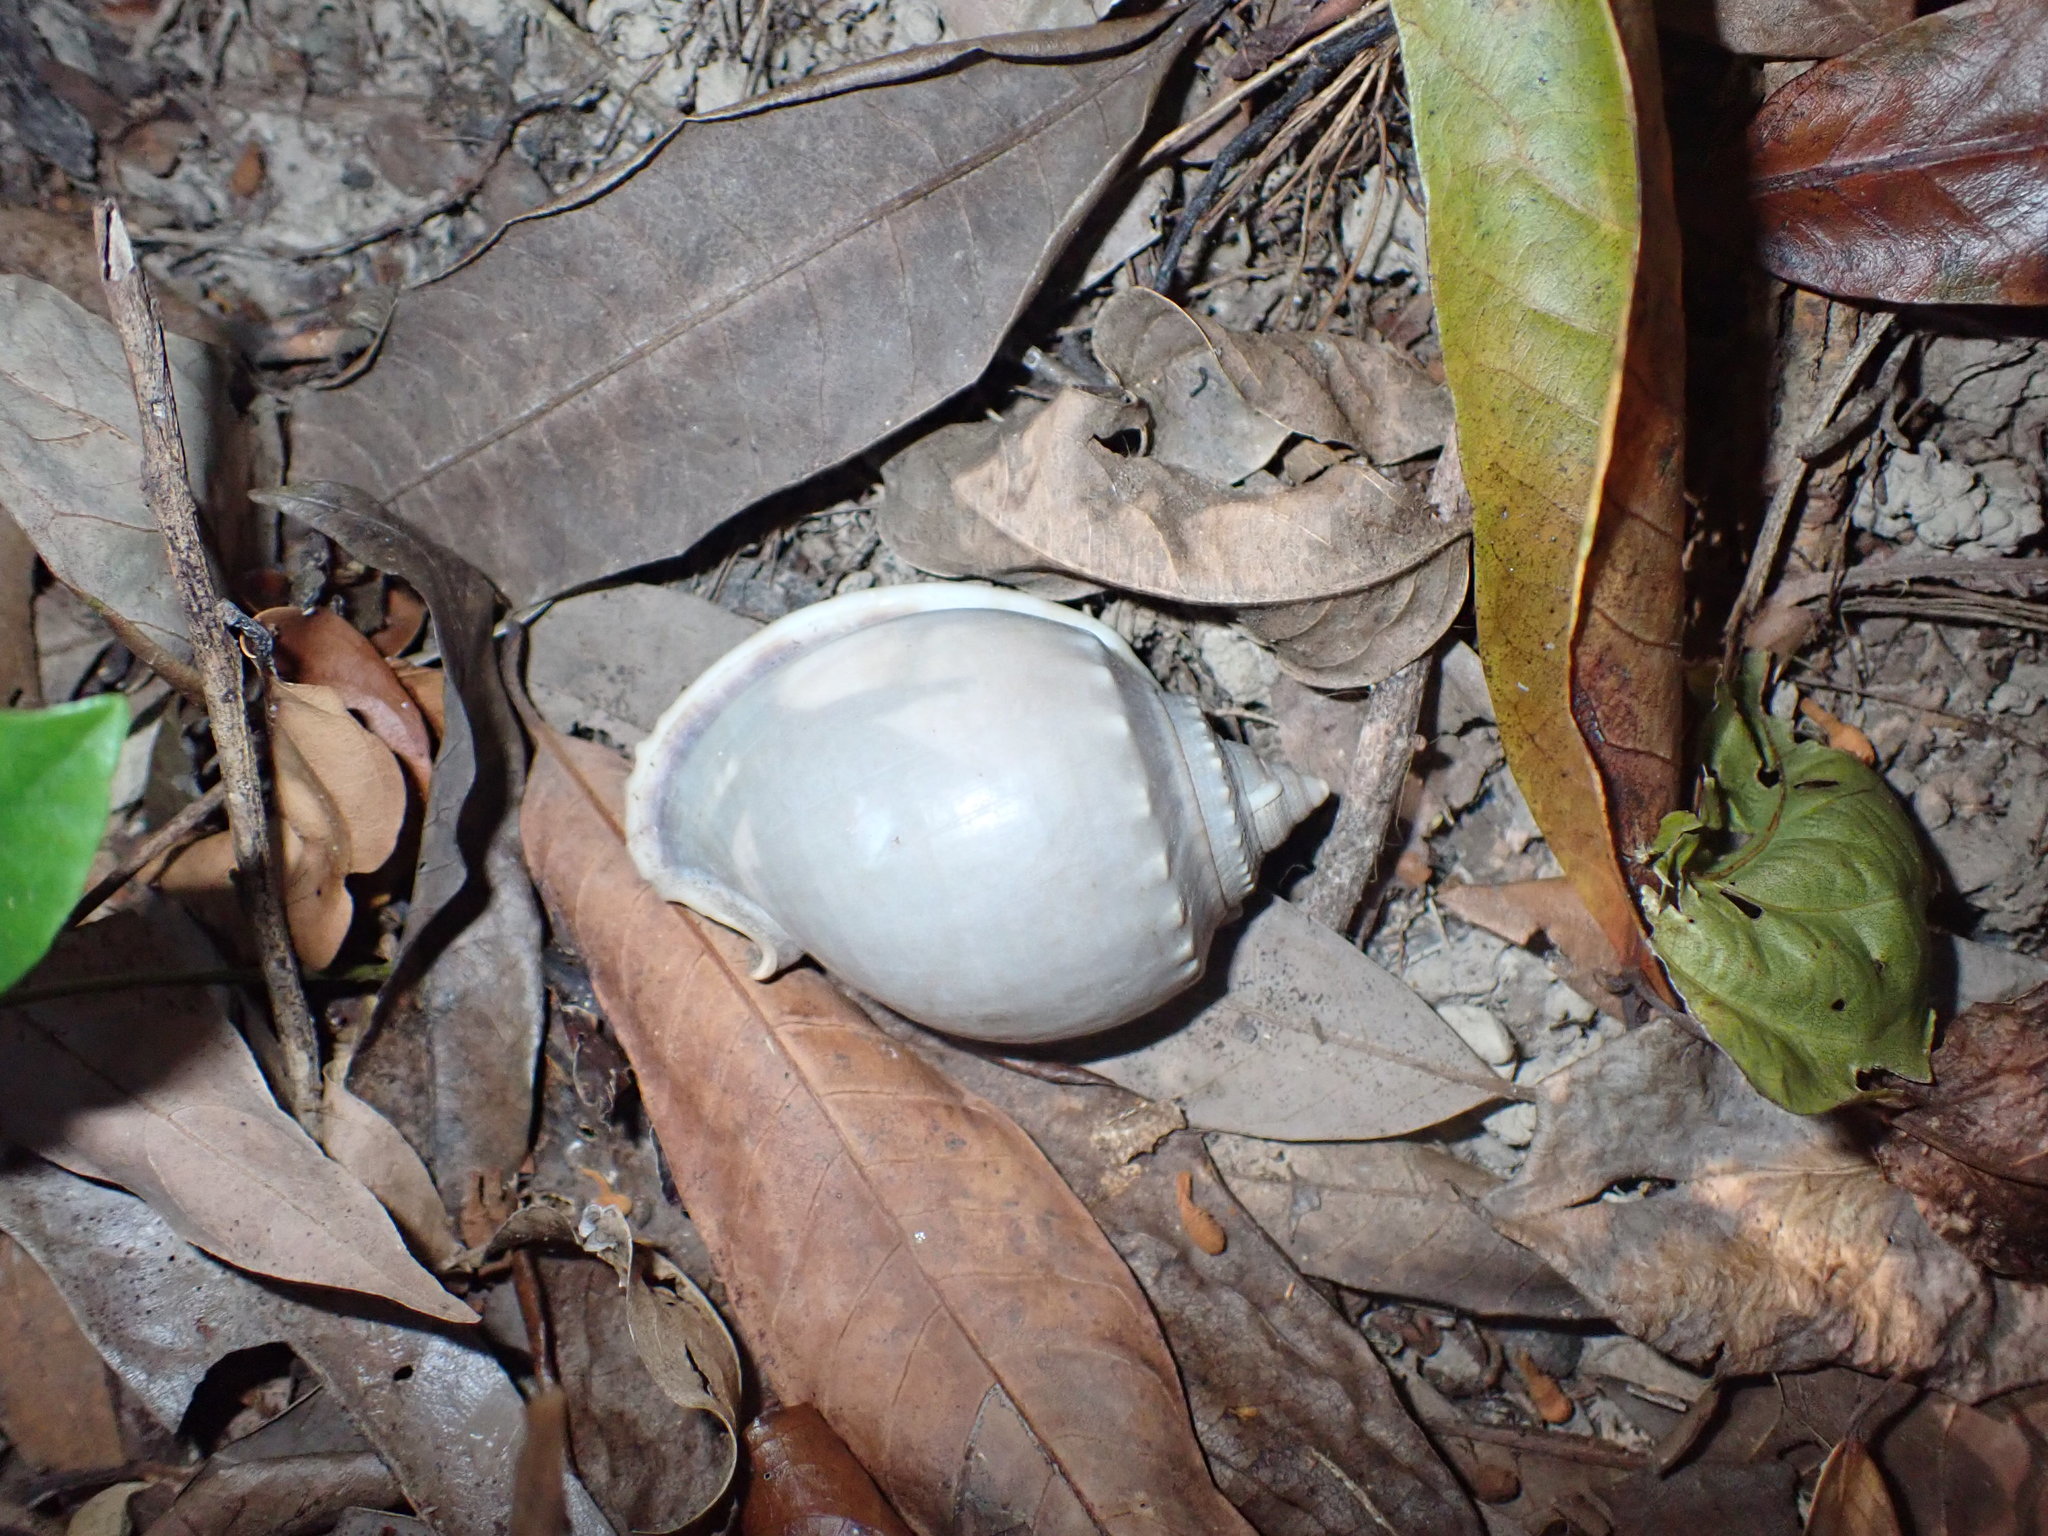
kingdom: Animalia
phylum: Mollusca
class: Gastropoda
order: Littorinimorpha
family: Cassidae
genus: Phalium
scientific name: Phalium glaucum
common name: Grey bonnet
